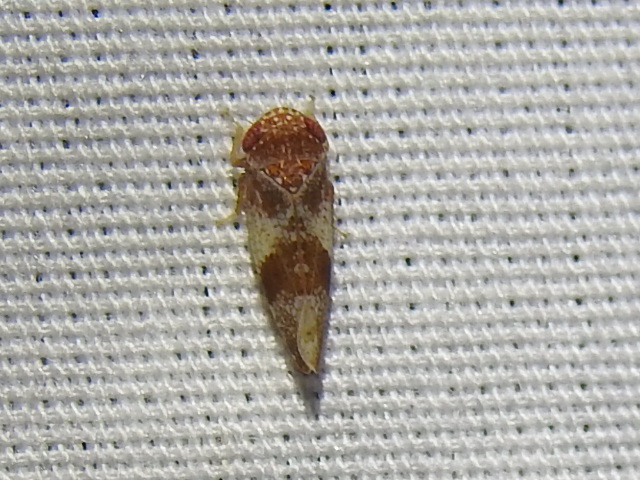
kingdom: Animalia
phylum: Arthropoda
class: Insecta
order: Hemiptera
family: Cicadellidae
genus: Norvellina
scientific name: Norvellina helenae
